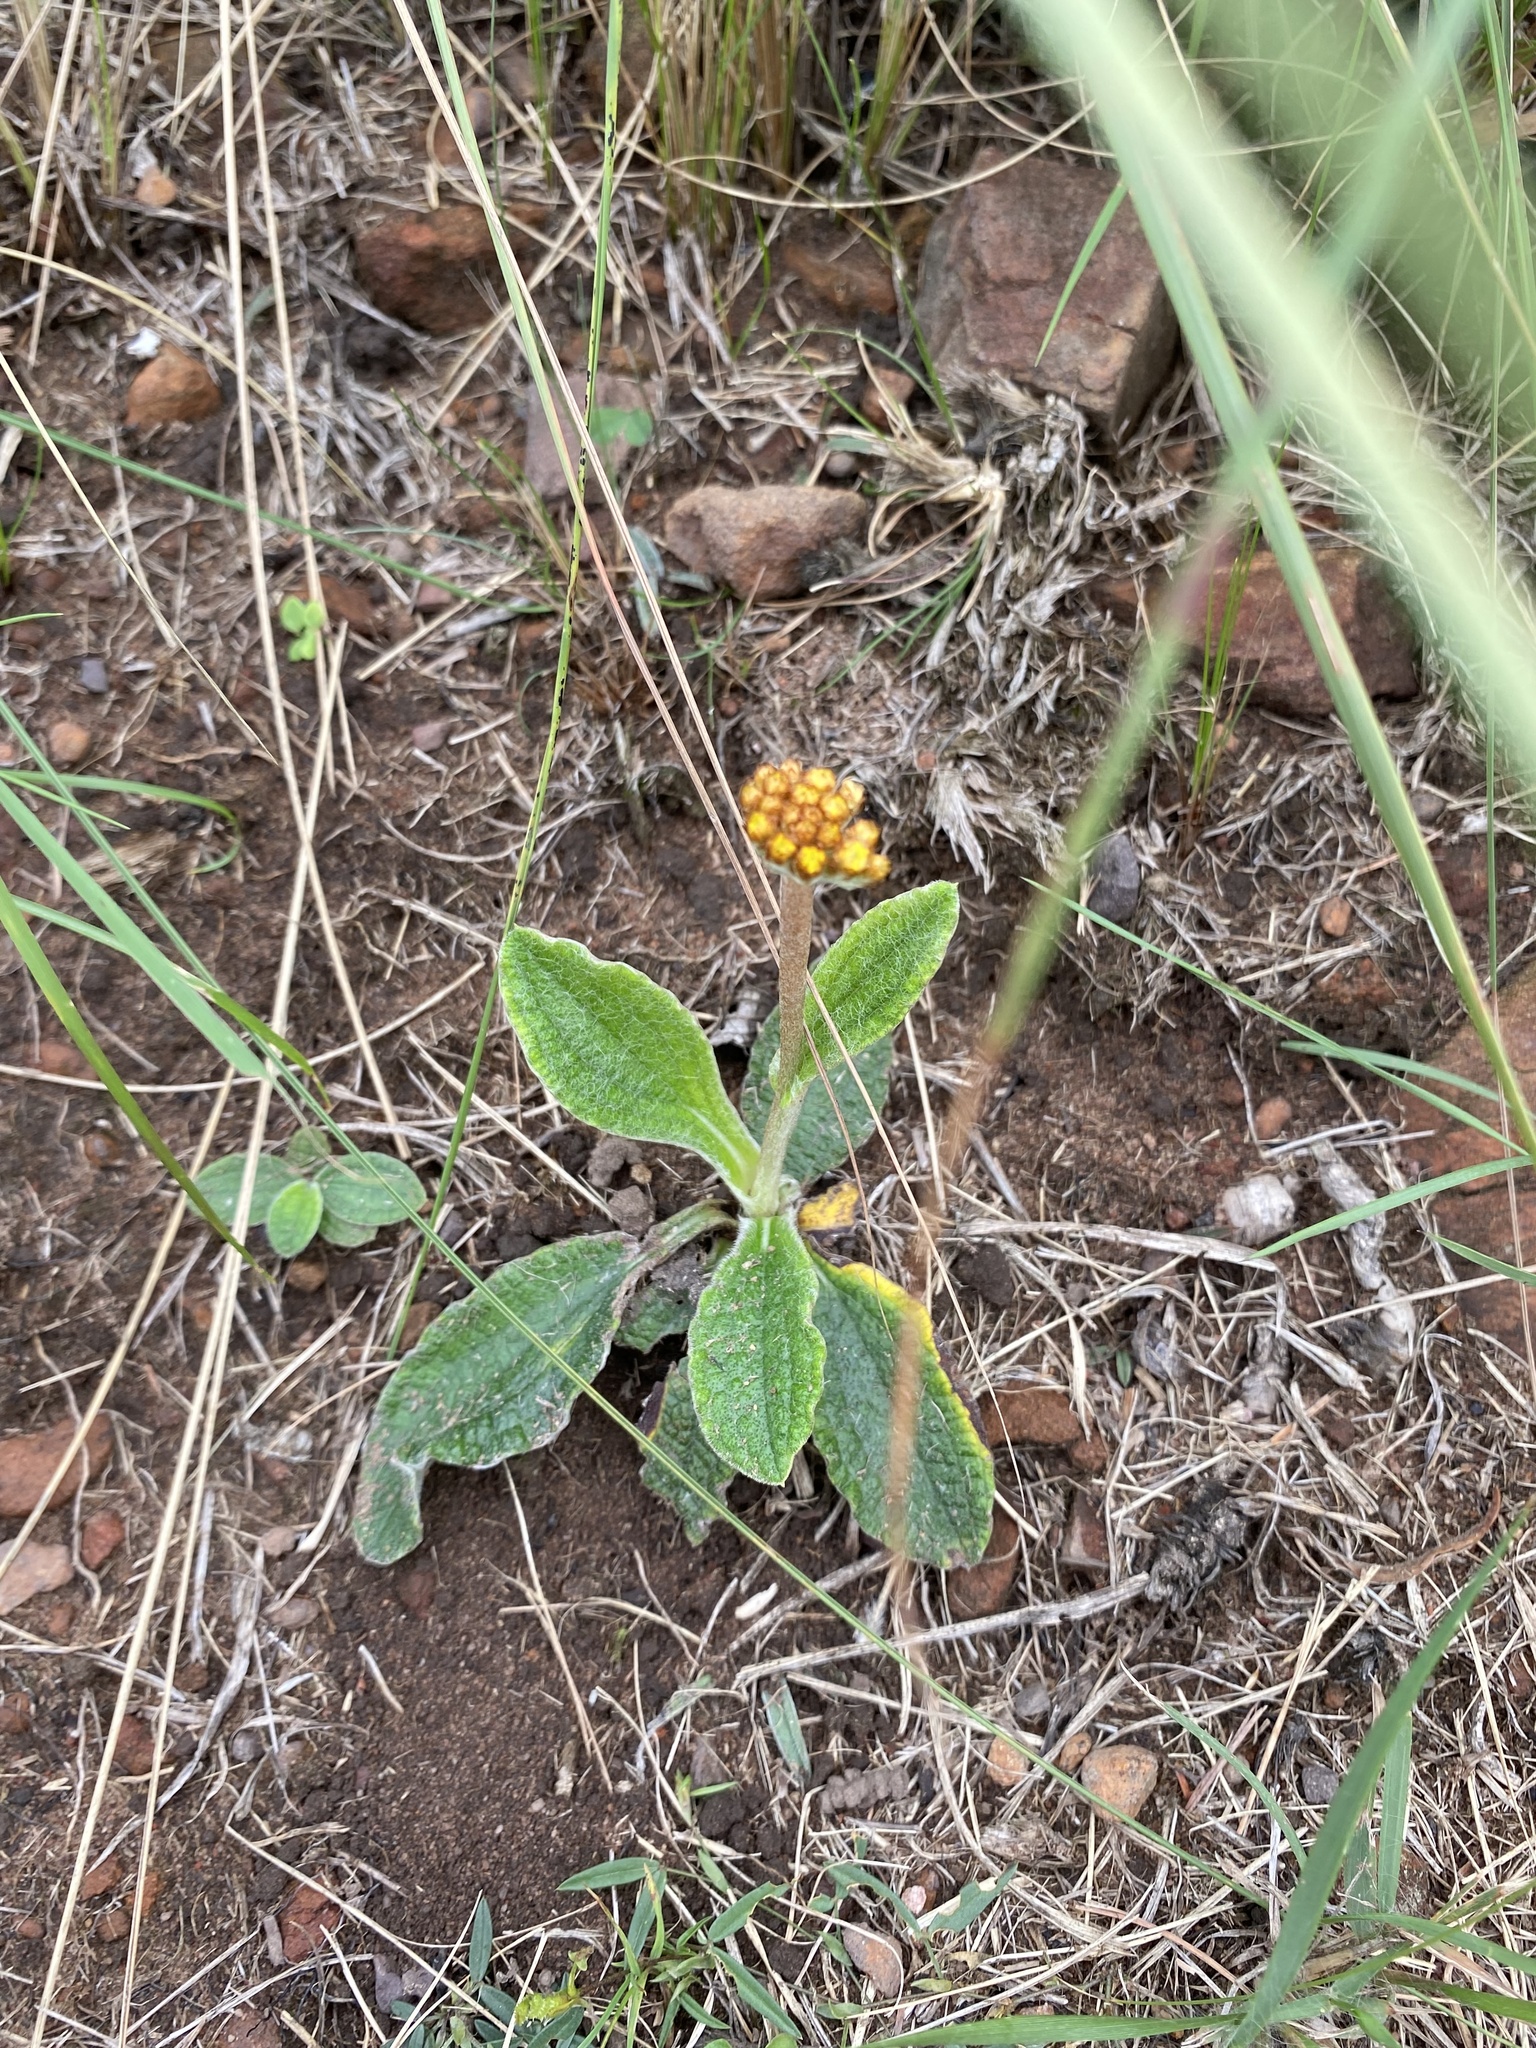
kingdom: Plantae
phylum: Tracheophyta
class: Magnoliopsida
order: Asterales
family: Asteraceae
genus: Helichrysum
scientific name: Helichrysum nudifolium
